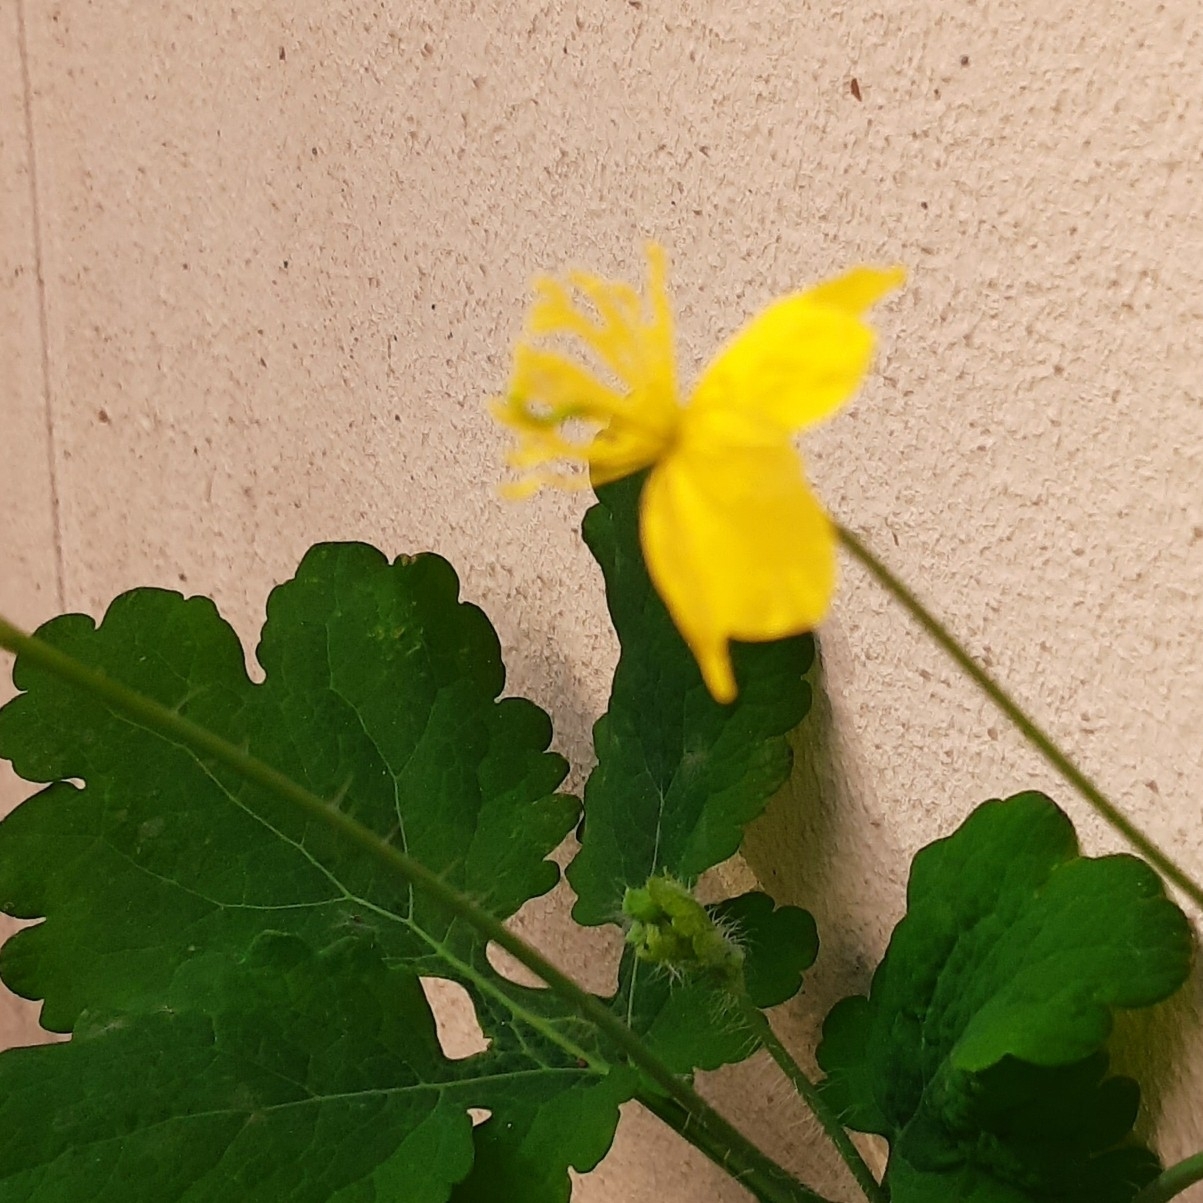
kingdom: Plantae
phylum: Tracheophyta
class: Magnoliopsida
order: Ranunculales
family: Papaveraceae
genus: Chelidonium
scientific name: Chelidonium majus
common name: Greater celandine
